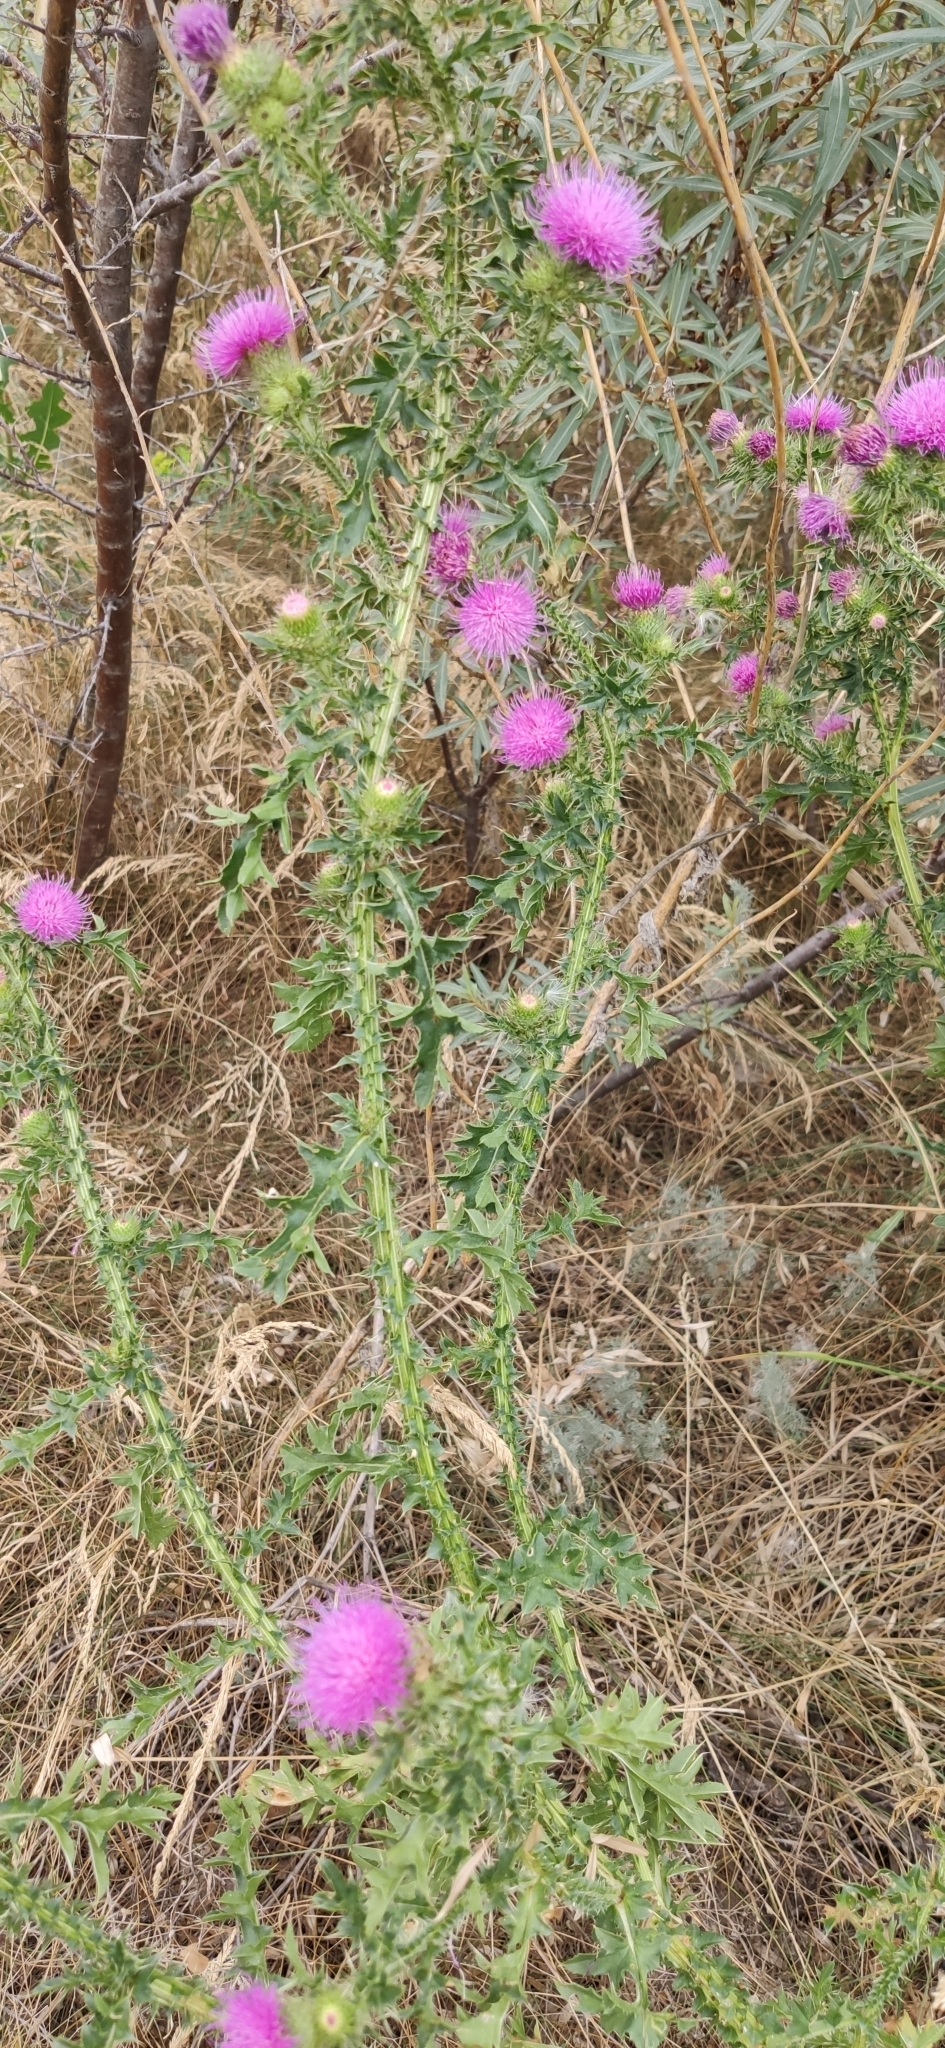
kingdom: Plantae
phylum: Tracheophyta
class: Magnoliopsida
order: Asterales
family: Asteraceae
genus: Carduus
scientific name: Carduus acanthoides
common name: Plumeless thistle
